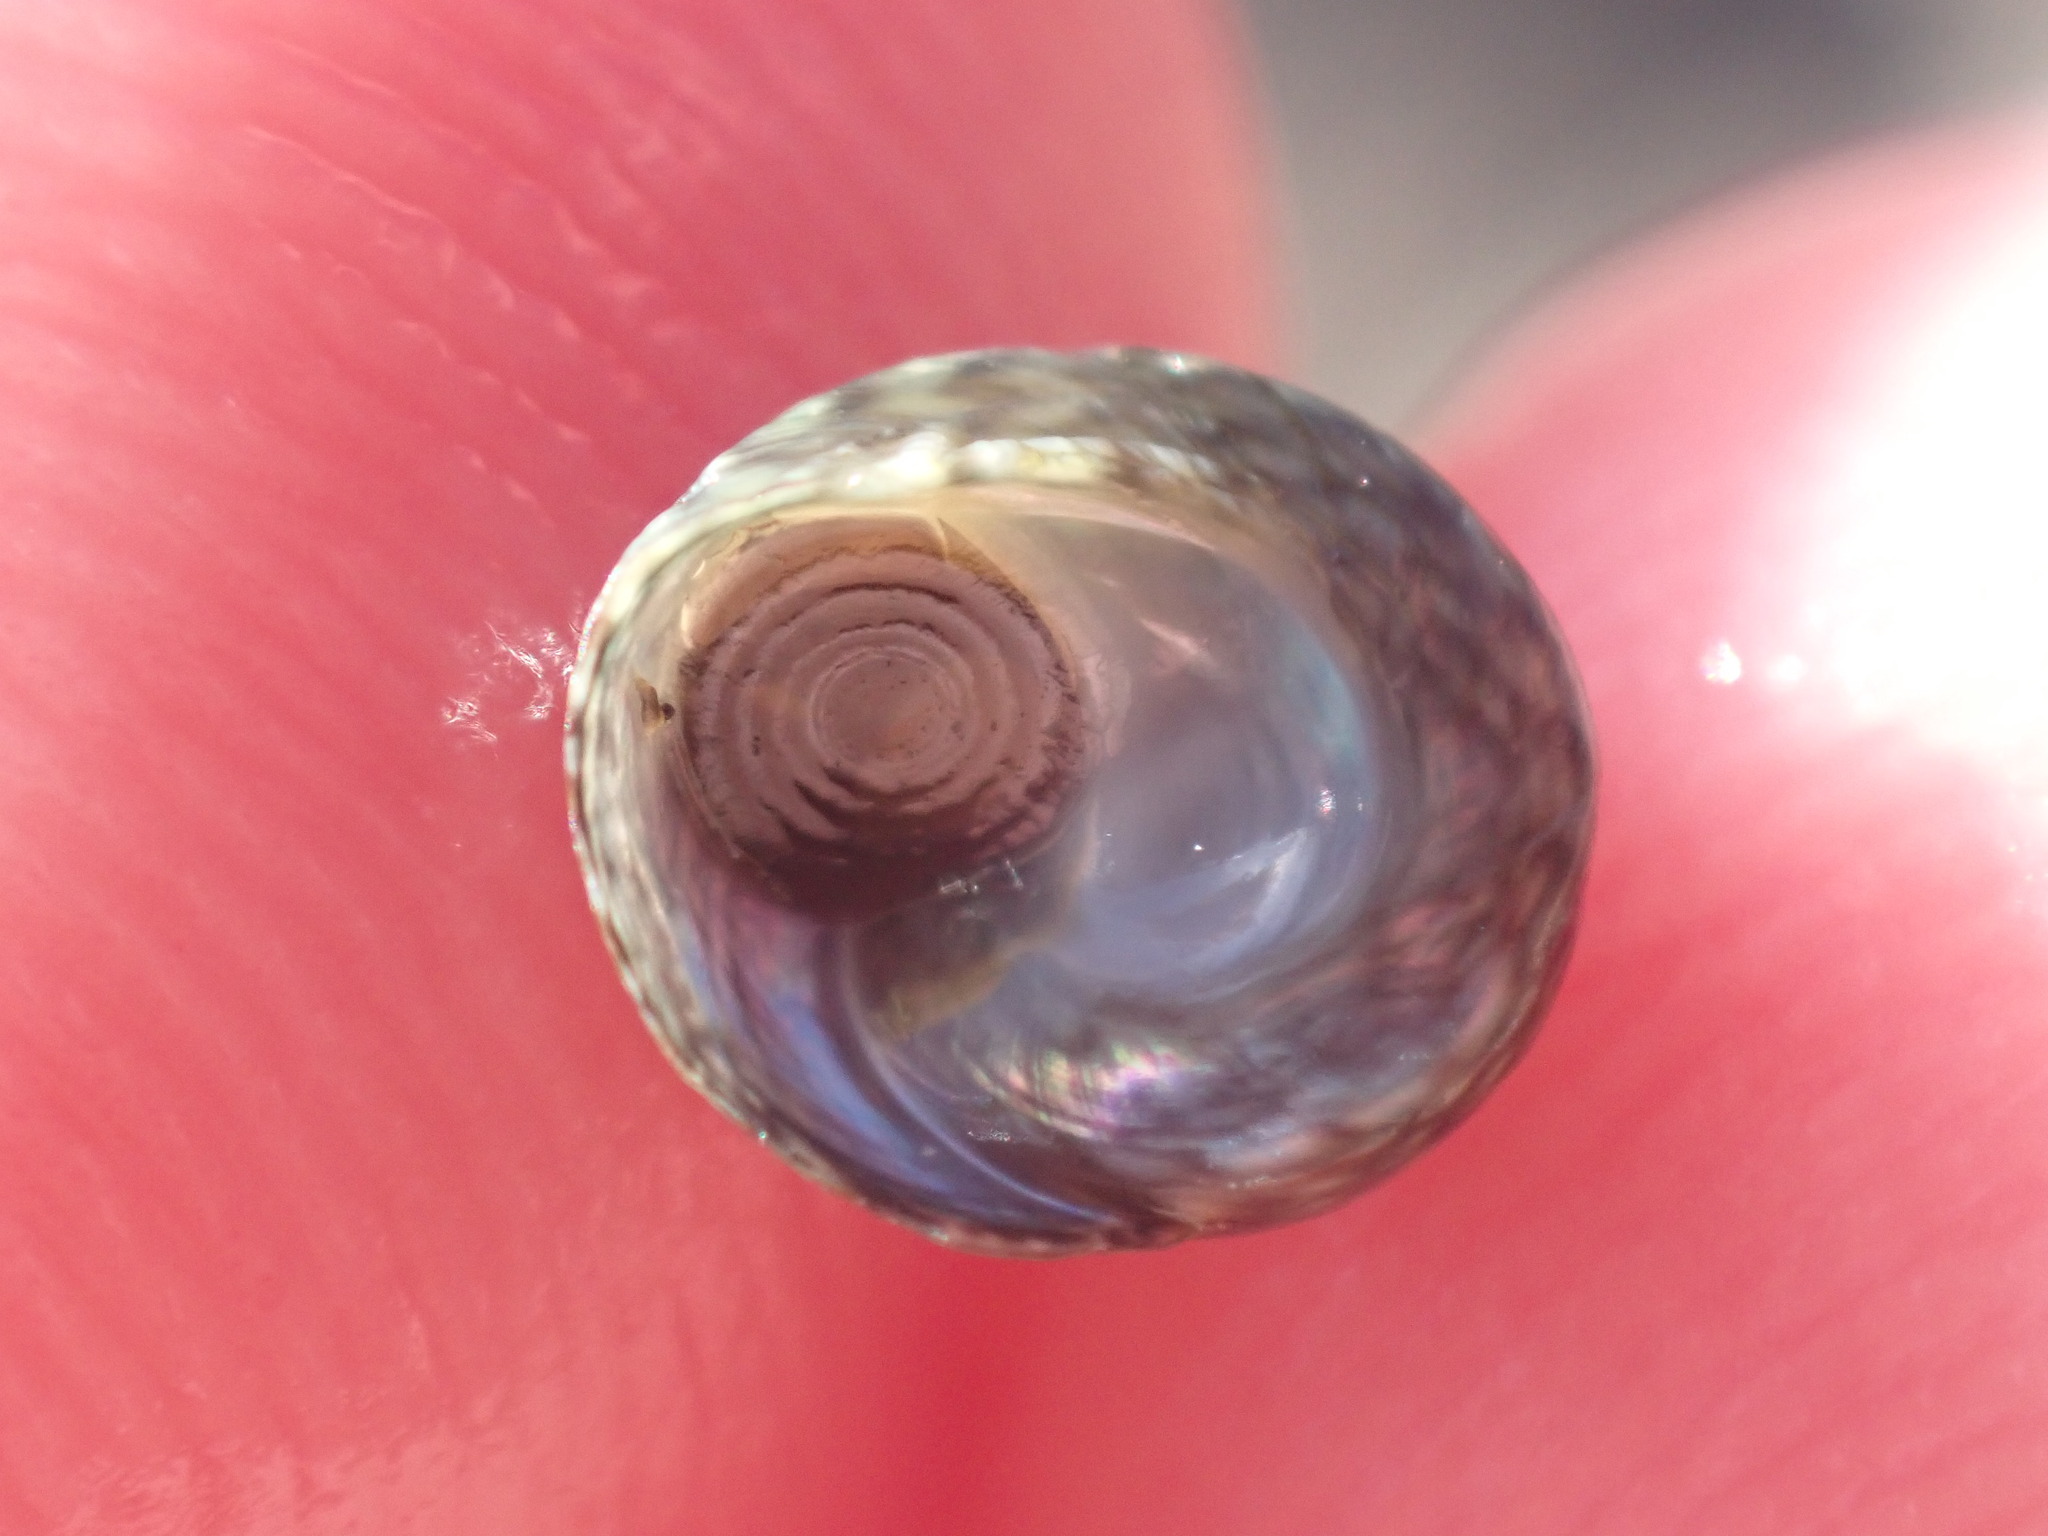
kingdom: Animalia
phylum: Mollusca
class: Gastropoda
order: Trochida
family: Trochidae
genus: Diloma
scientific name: Diloma coracinum
